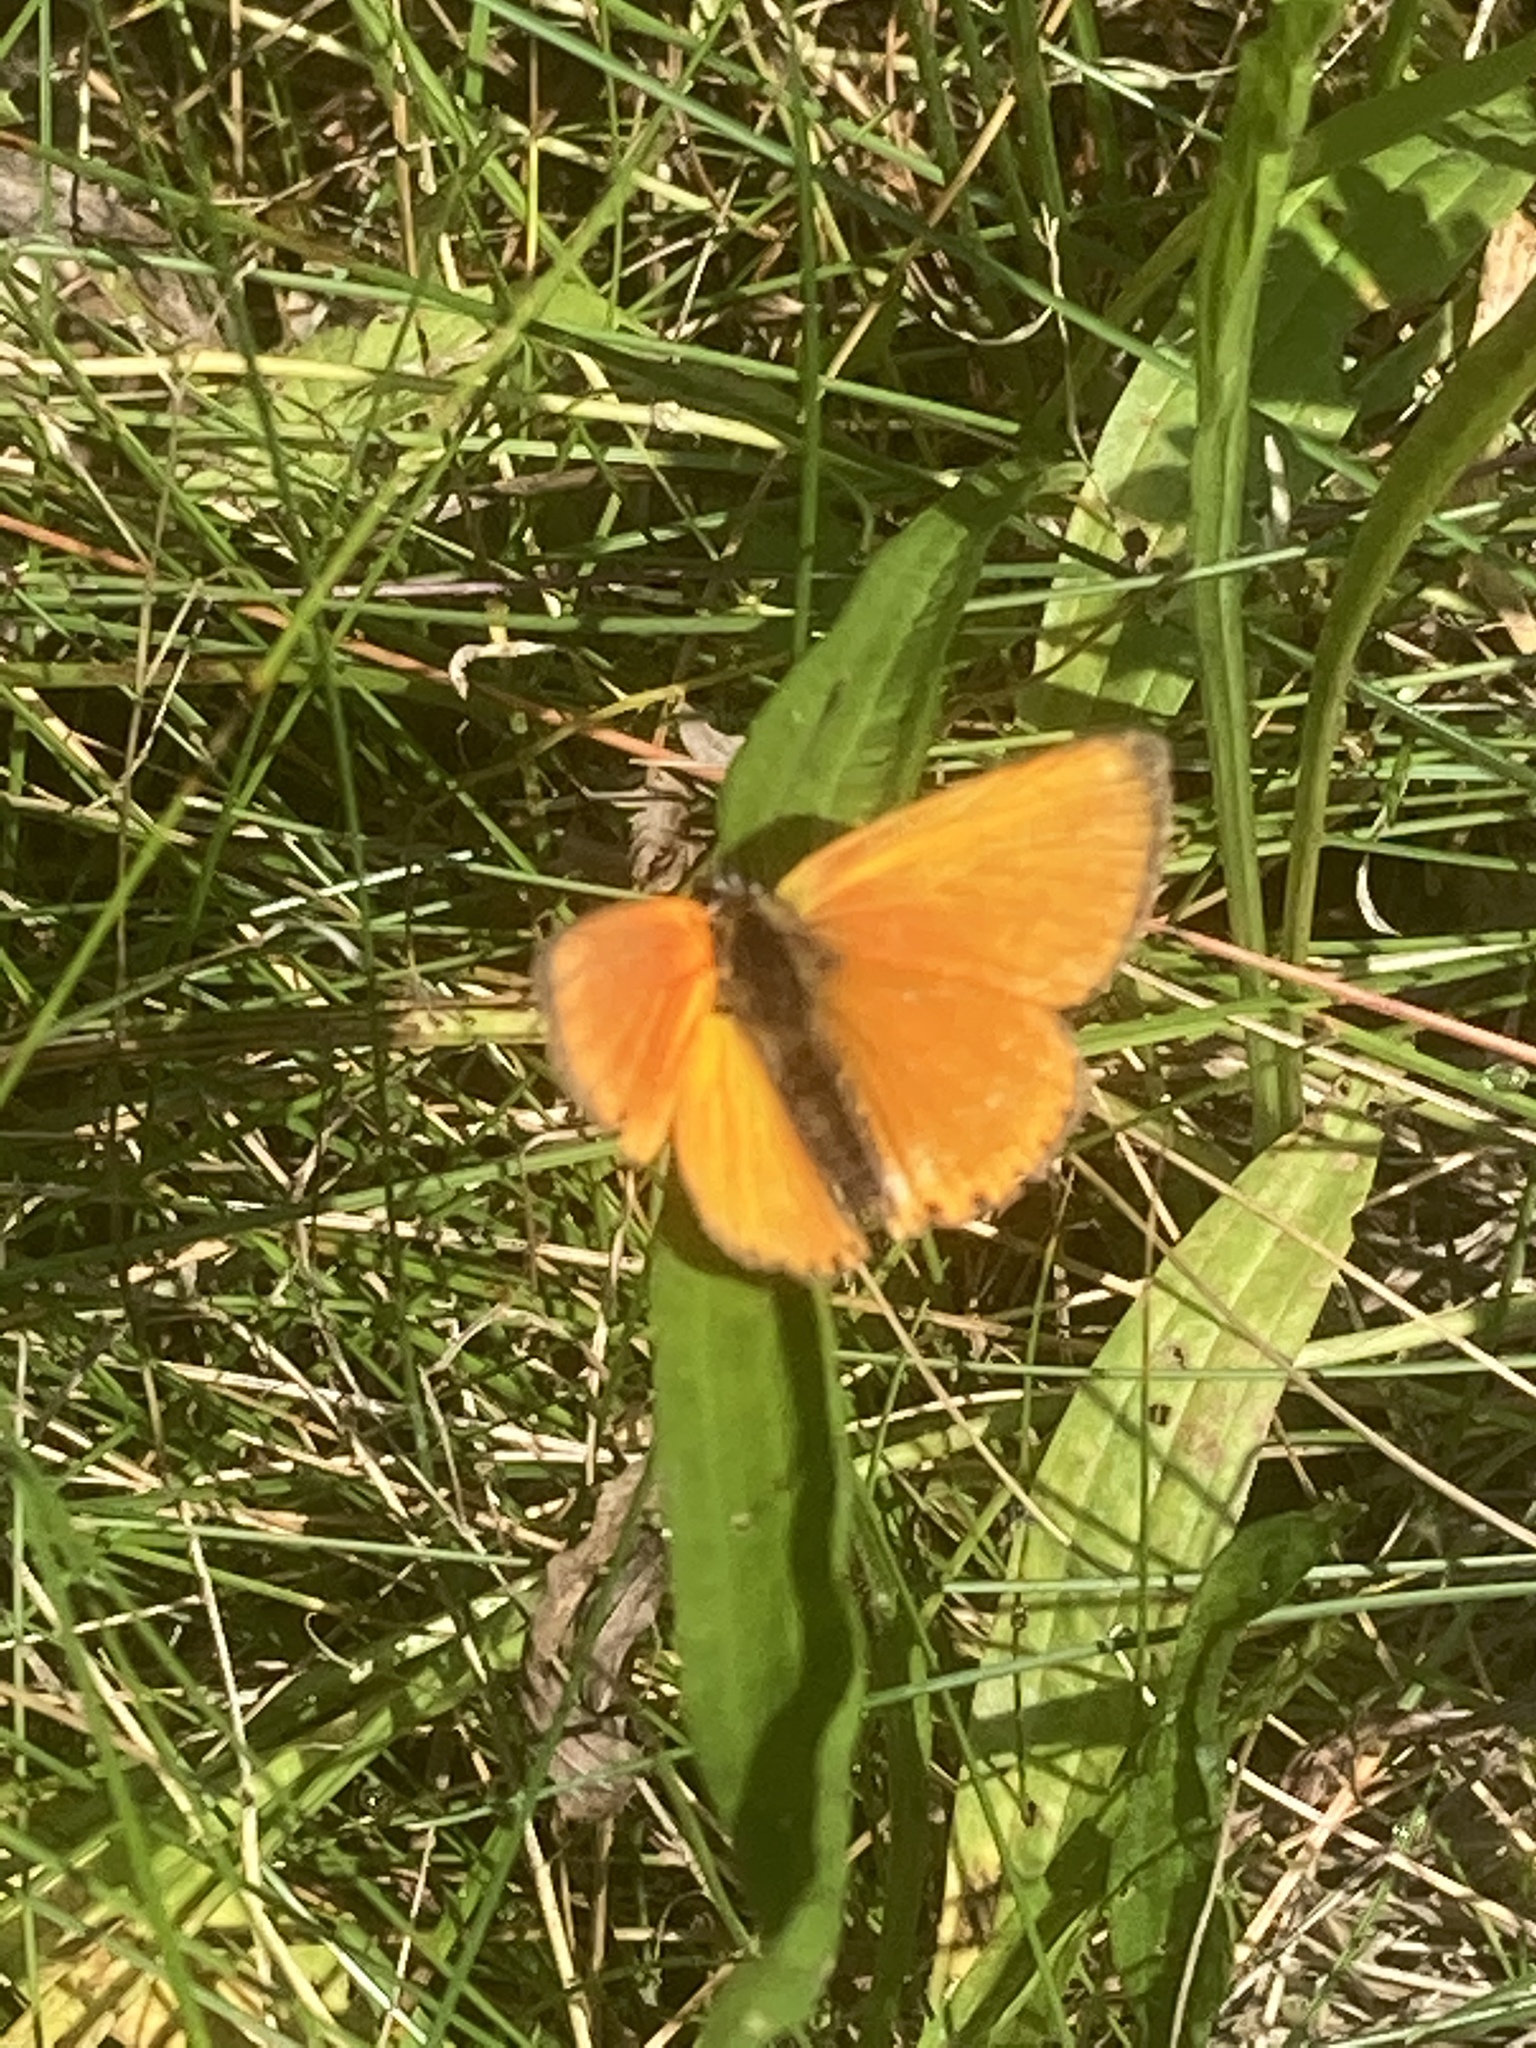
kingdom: Animalia
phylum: Arthropoda
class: Insecta
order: Lepidoptera
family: Lycaenidae
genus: Lycaena
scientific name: Lycaena virgaureae
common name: Scarce copper
